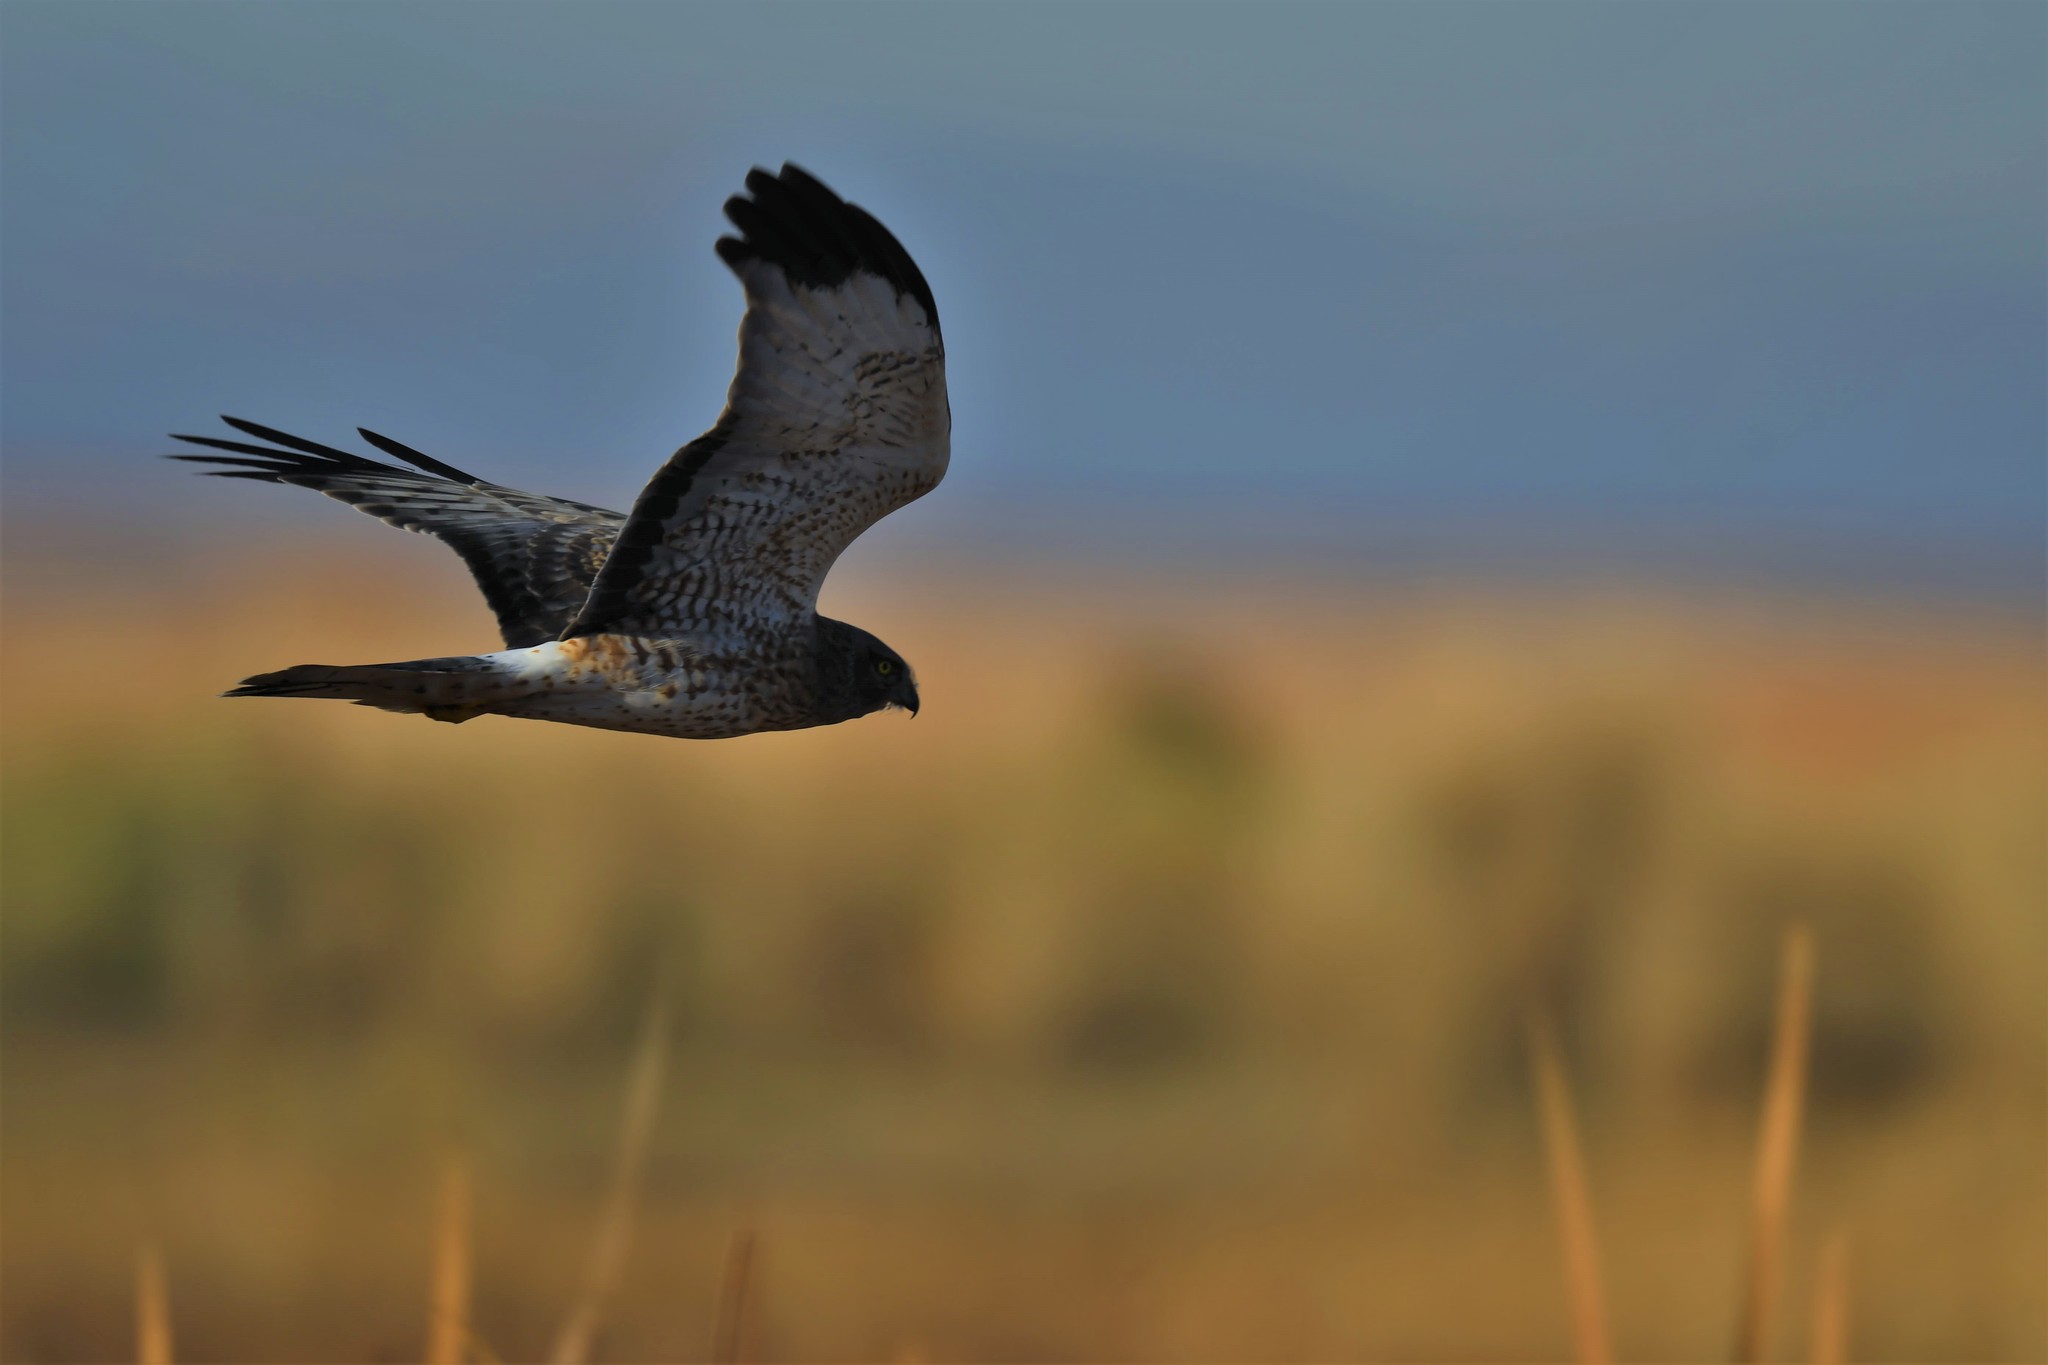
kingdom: Animalia
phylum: Chordata
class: Aves
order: Accipitriformes
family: Accipitridae
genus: Circus
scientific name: Circus cyaneus
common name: Hen harrier
